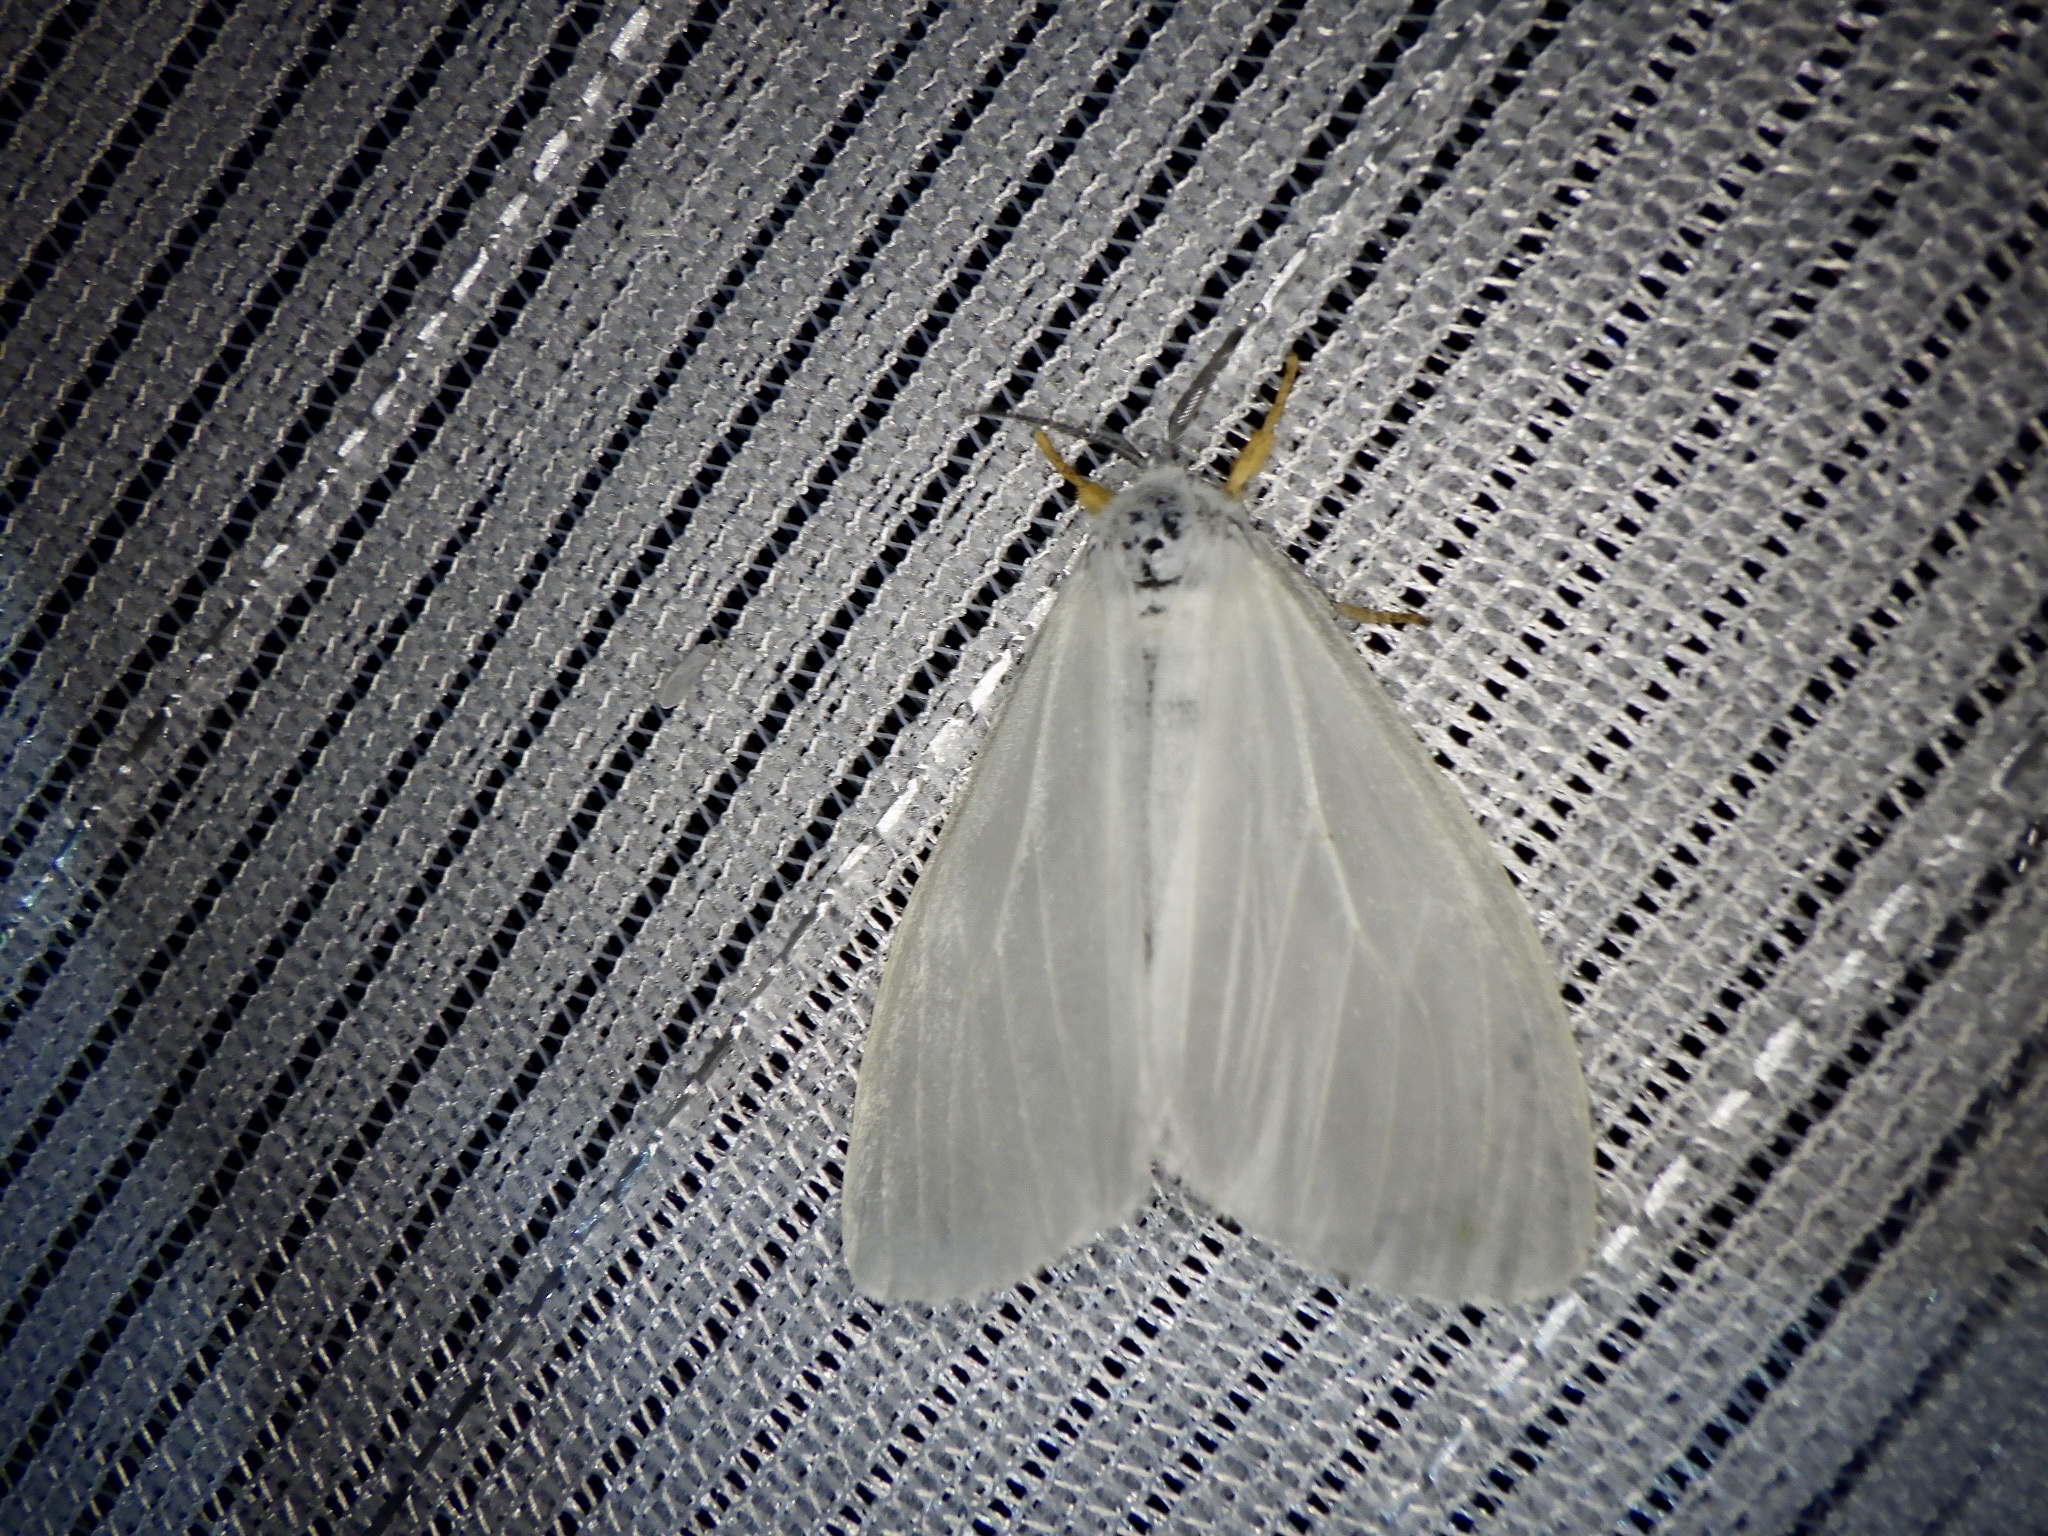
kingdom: Animalia
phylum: Arthropoda
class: Insecta
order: Lepidoptera
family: Erebidae
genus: Ivela
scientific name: Ivela auripes
